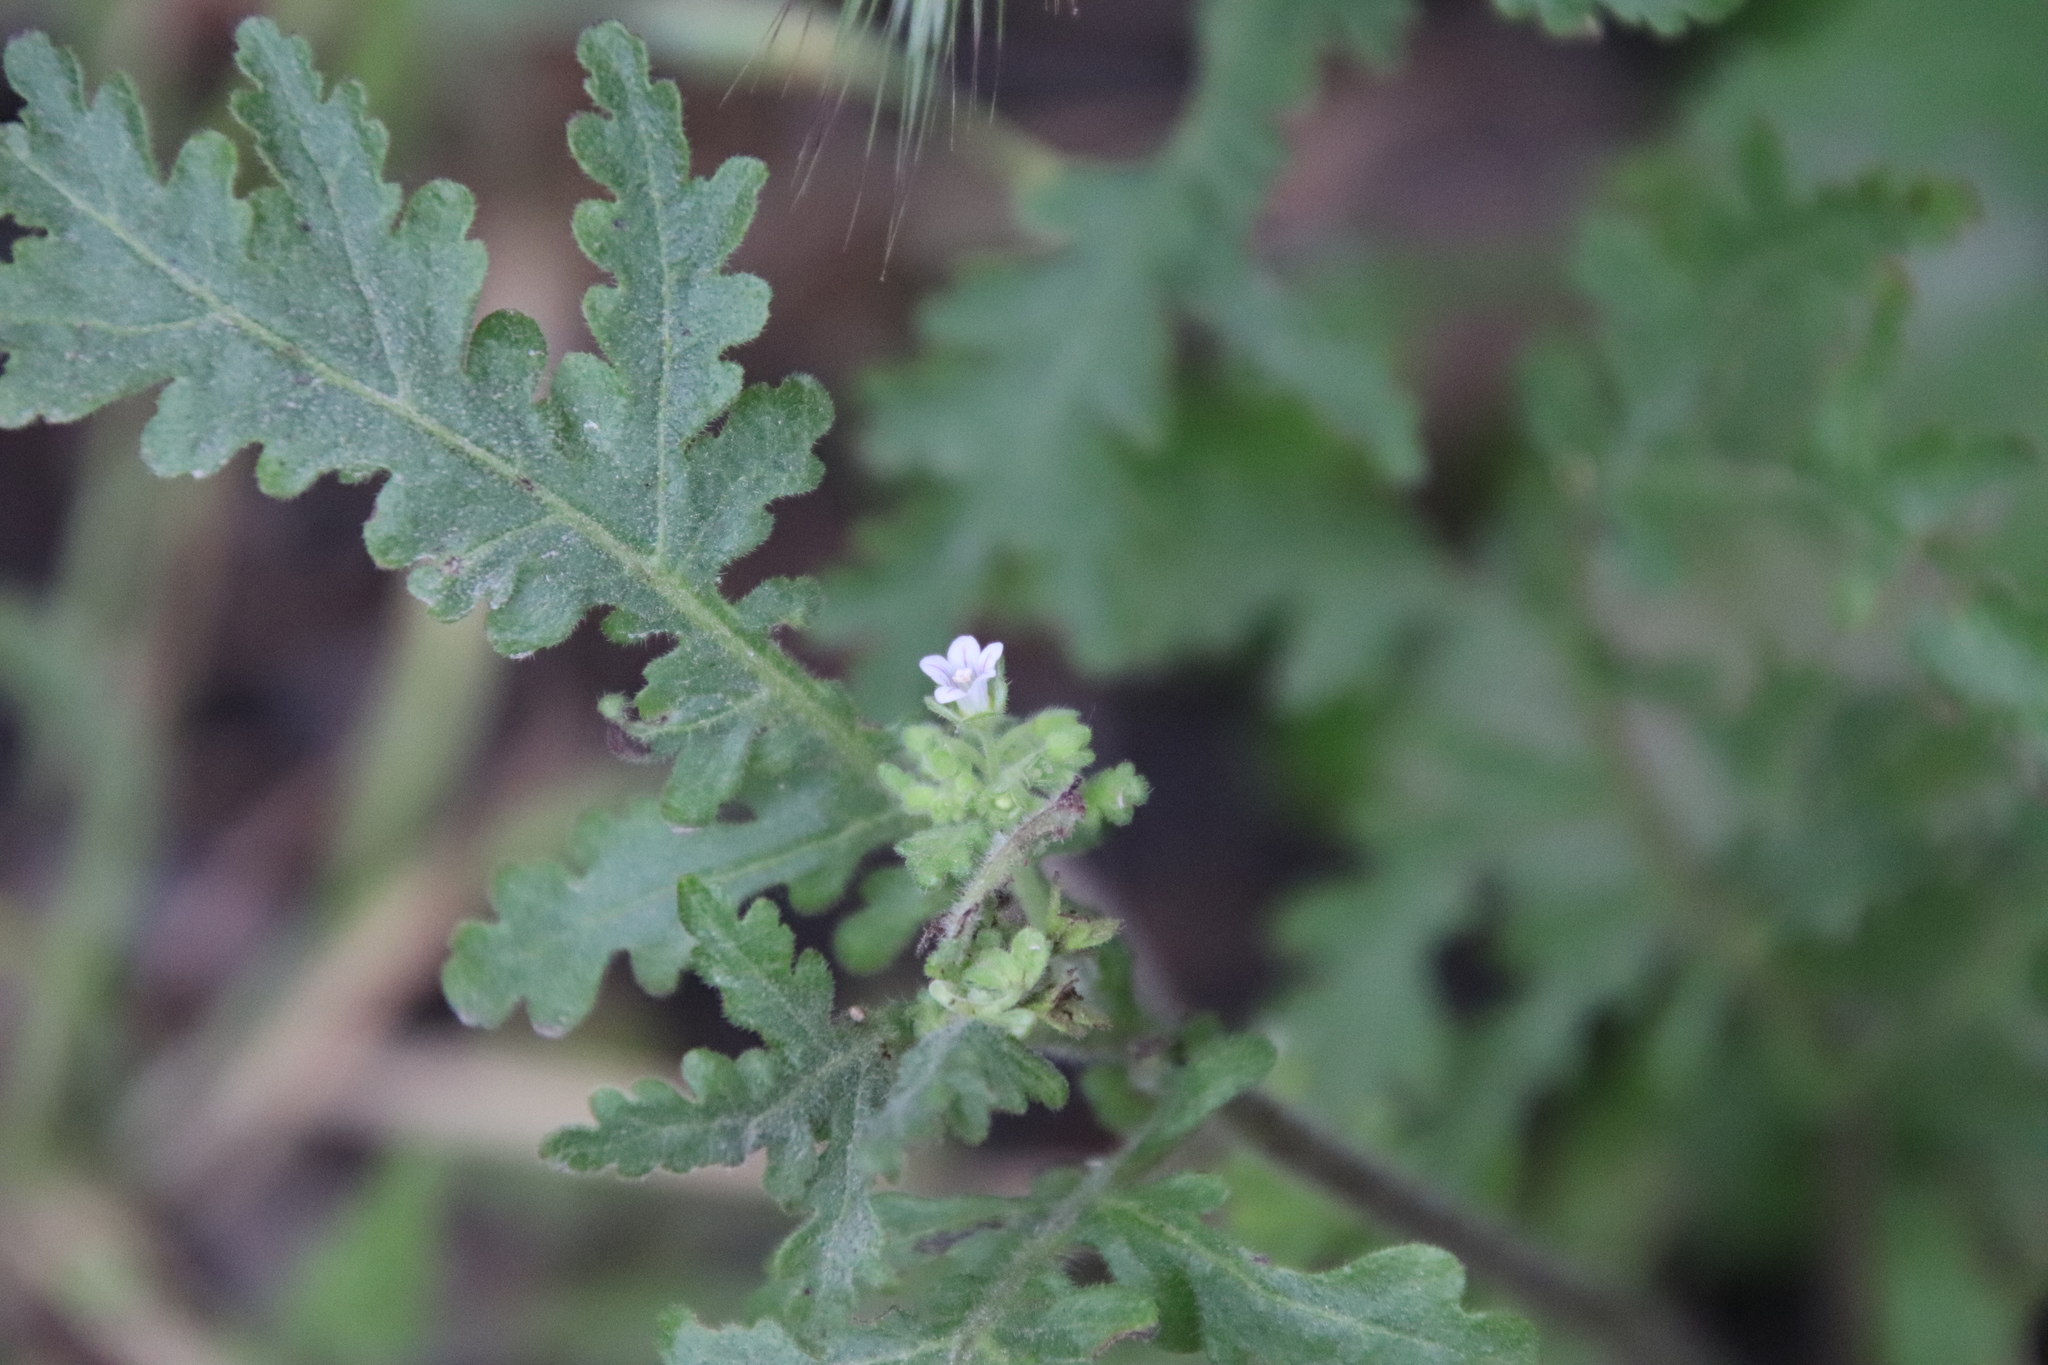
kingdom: Plantae
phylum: Tracheophyta
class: Magnoliopsida
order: Boraginales
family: Hydrophyllaceae
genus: Eucrypta
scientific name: Eucrypta chrysanthemifolia
